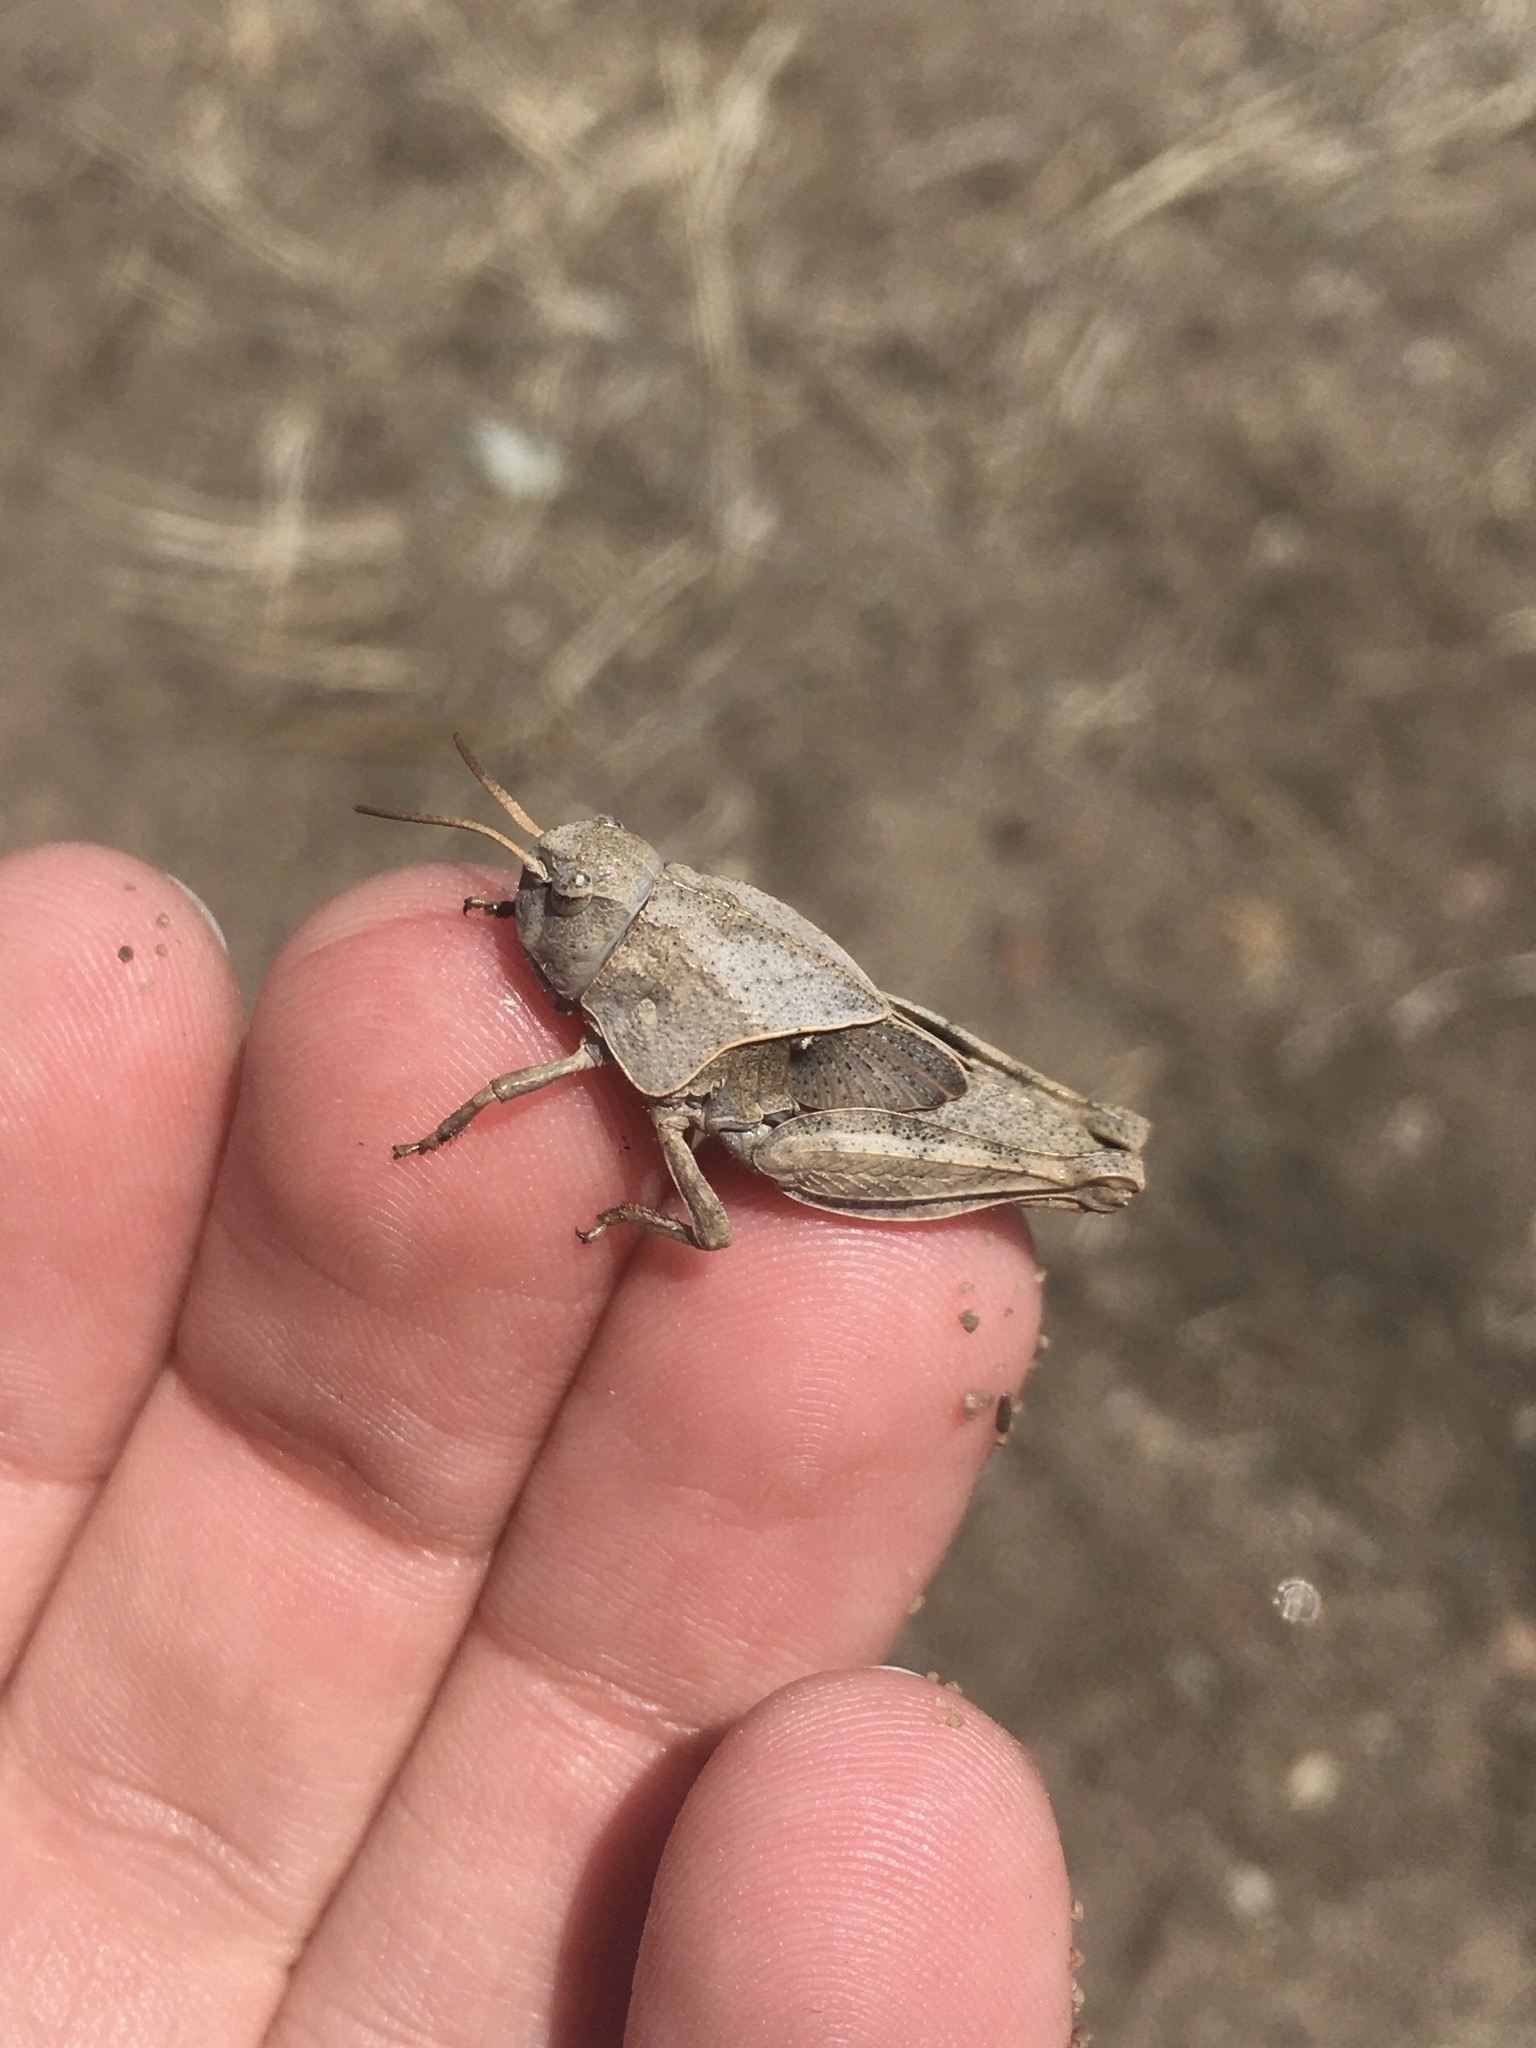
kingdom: Animalia
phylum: Arthropoda
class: Insecta
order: Orthoptera
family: Acrididae
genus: Pardalophora
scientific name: Pardalophora apiculata
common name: Coral-winged locust
